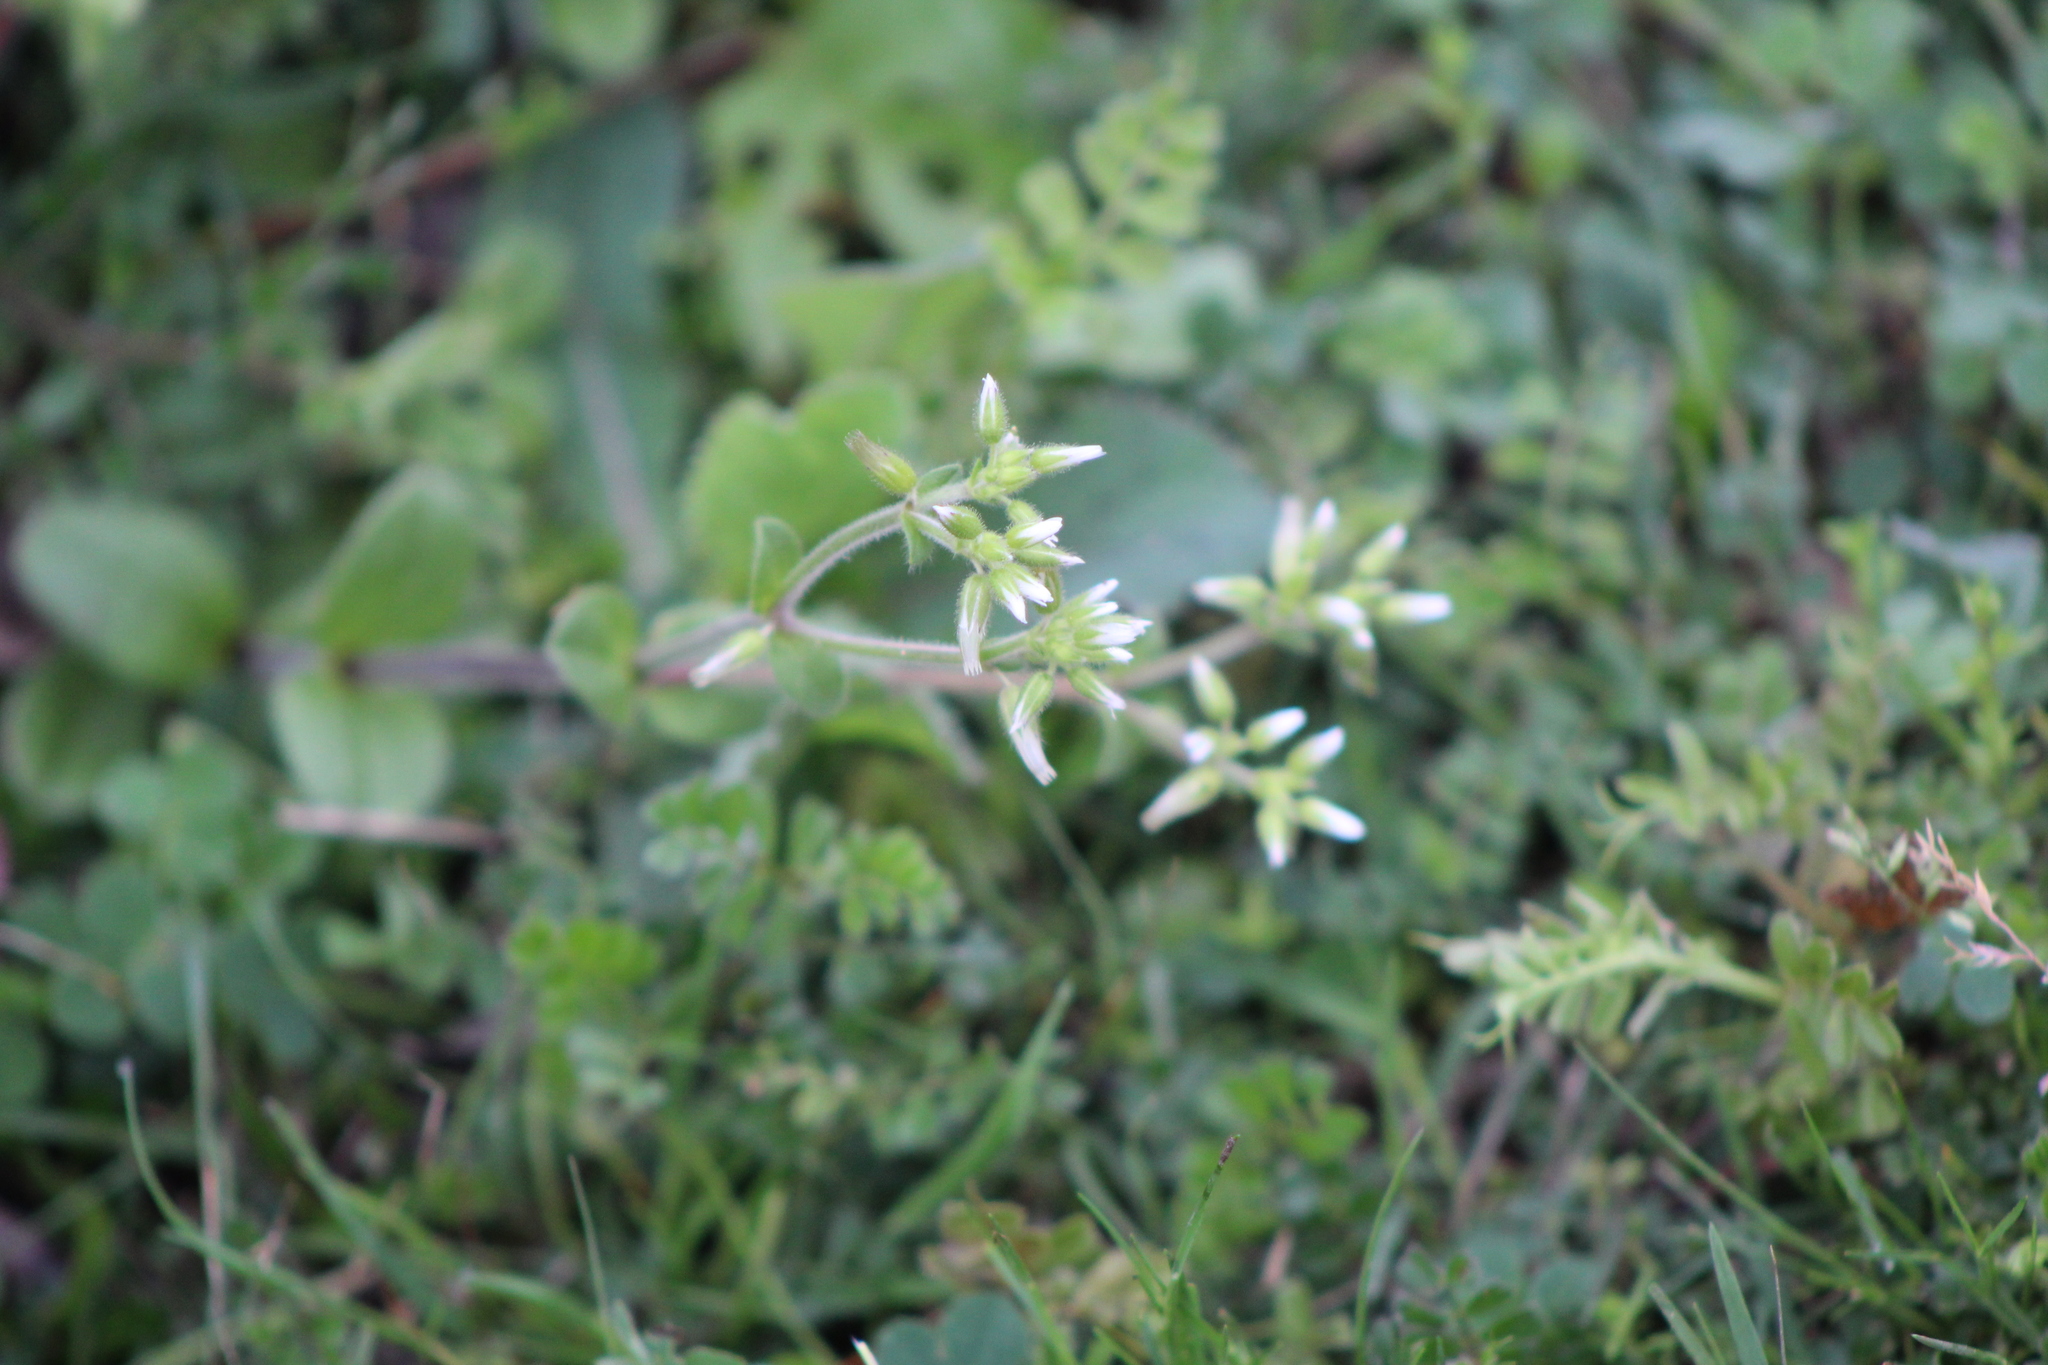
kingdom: Plantae
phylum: Tracheophyta
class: Magnoliopsida
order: Caryophyllales
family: Caryophyllaceae
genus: Cerastium
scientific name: Cerastium glomeratum
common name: Sticky chickweed
